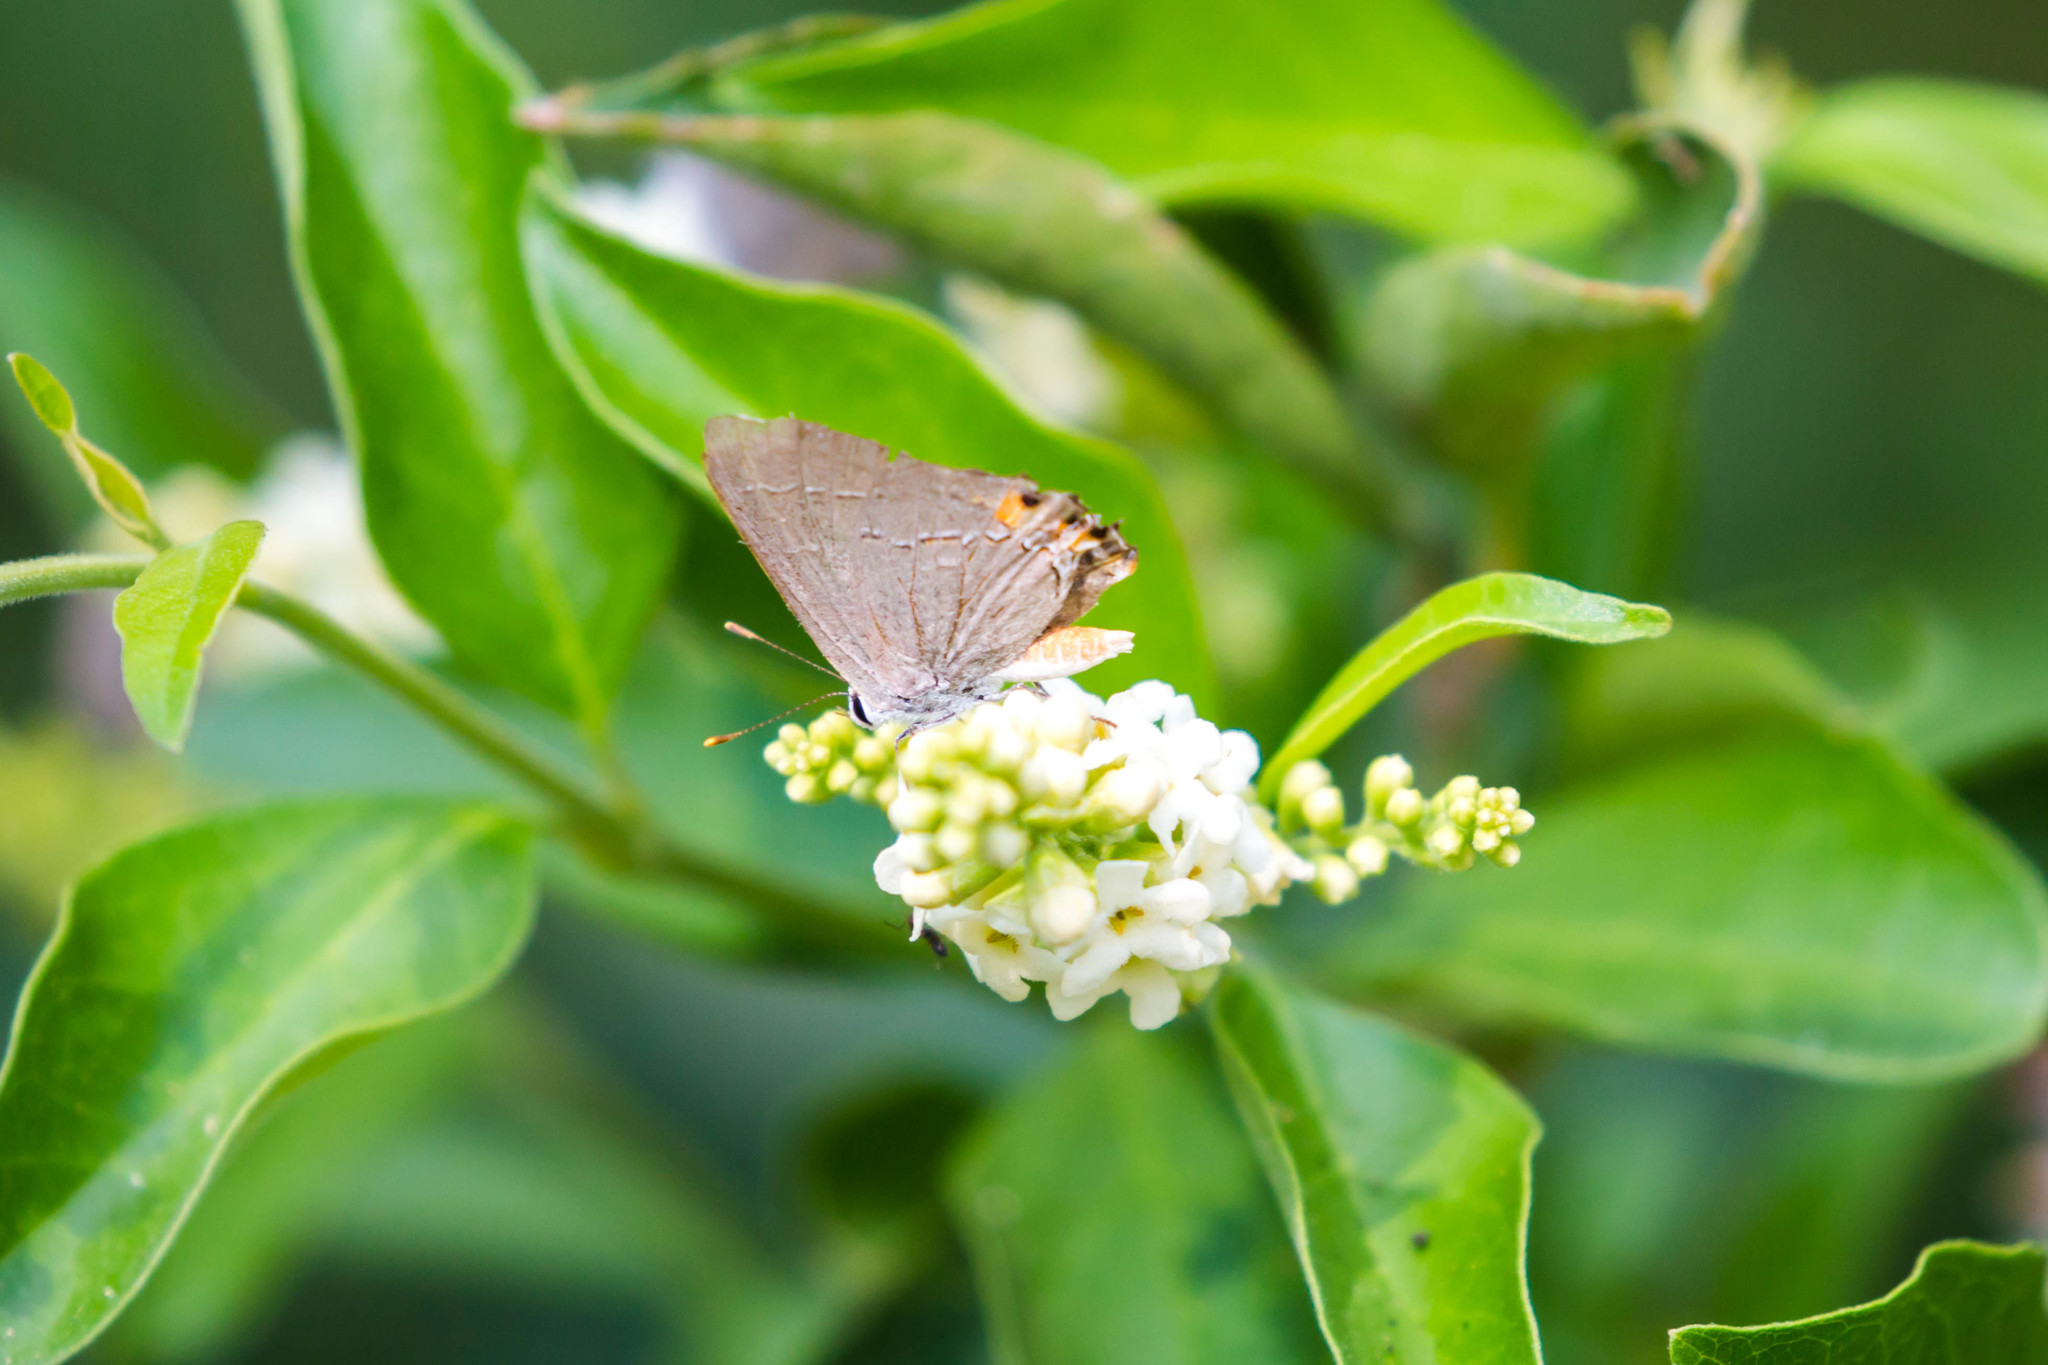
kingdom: Animalia
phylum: Arthropoda
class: Insecta
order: Lepidoptera
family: Lycaenidae
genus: Strymon
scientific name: Strymon melinus
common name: Gray hairstreak
